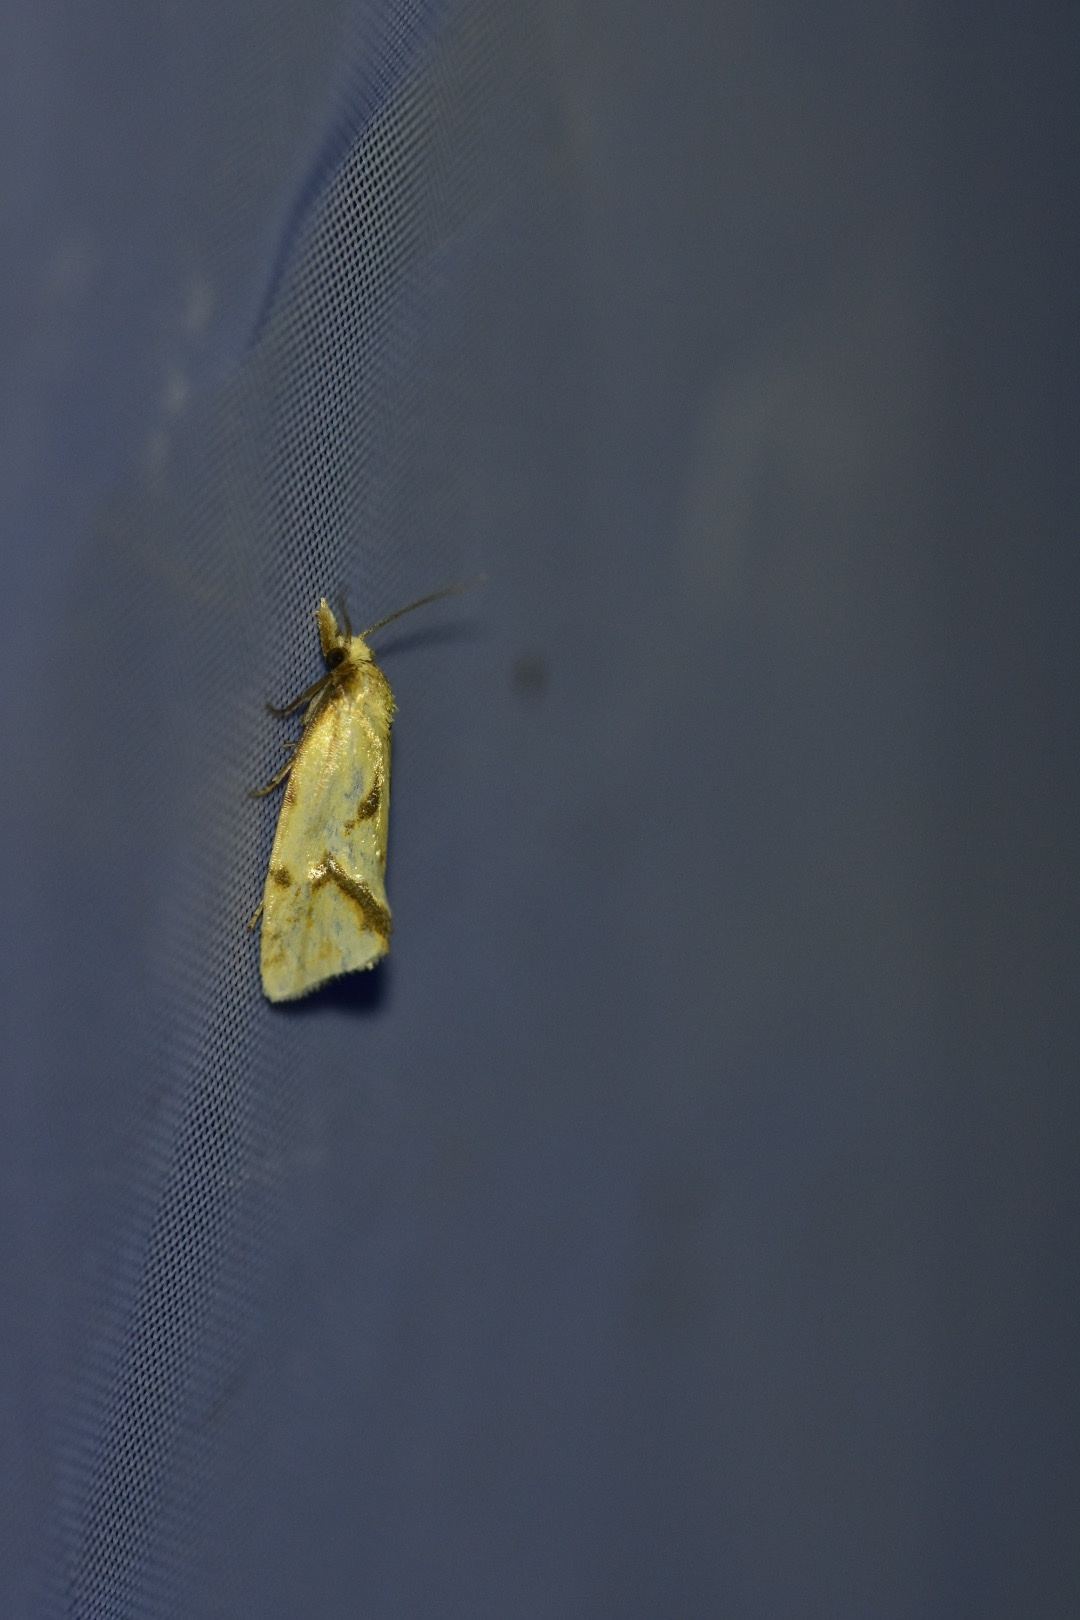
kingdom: Animalia
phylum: Arthropoda
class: Insecta
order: Lepidoptera
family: Tortricidae
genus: Agapeta
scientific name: Agapeta hamana
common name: Common yellow conch
